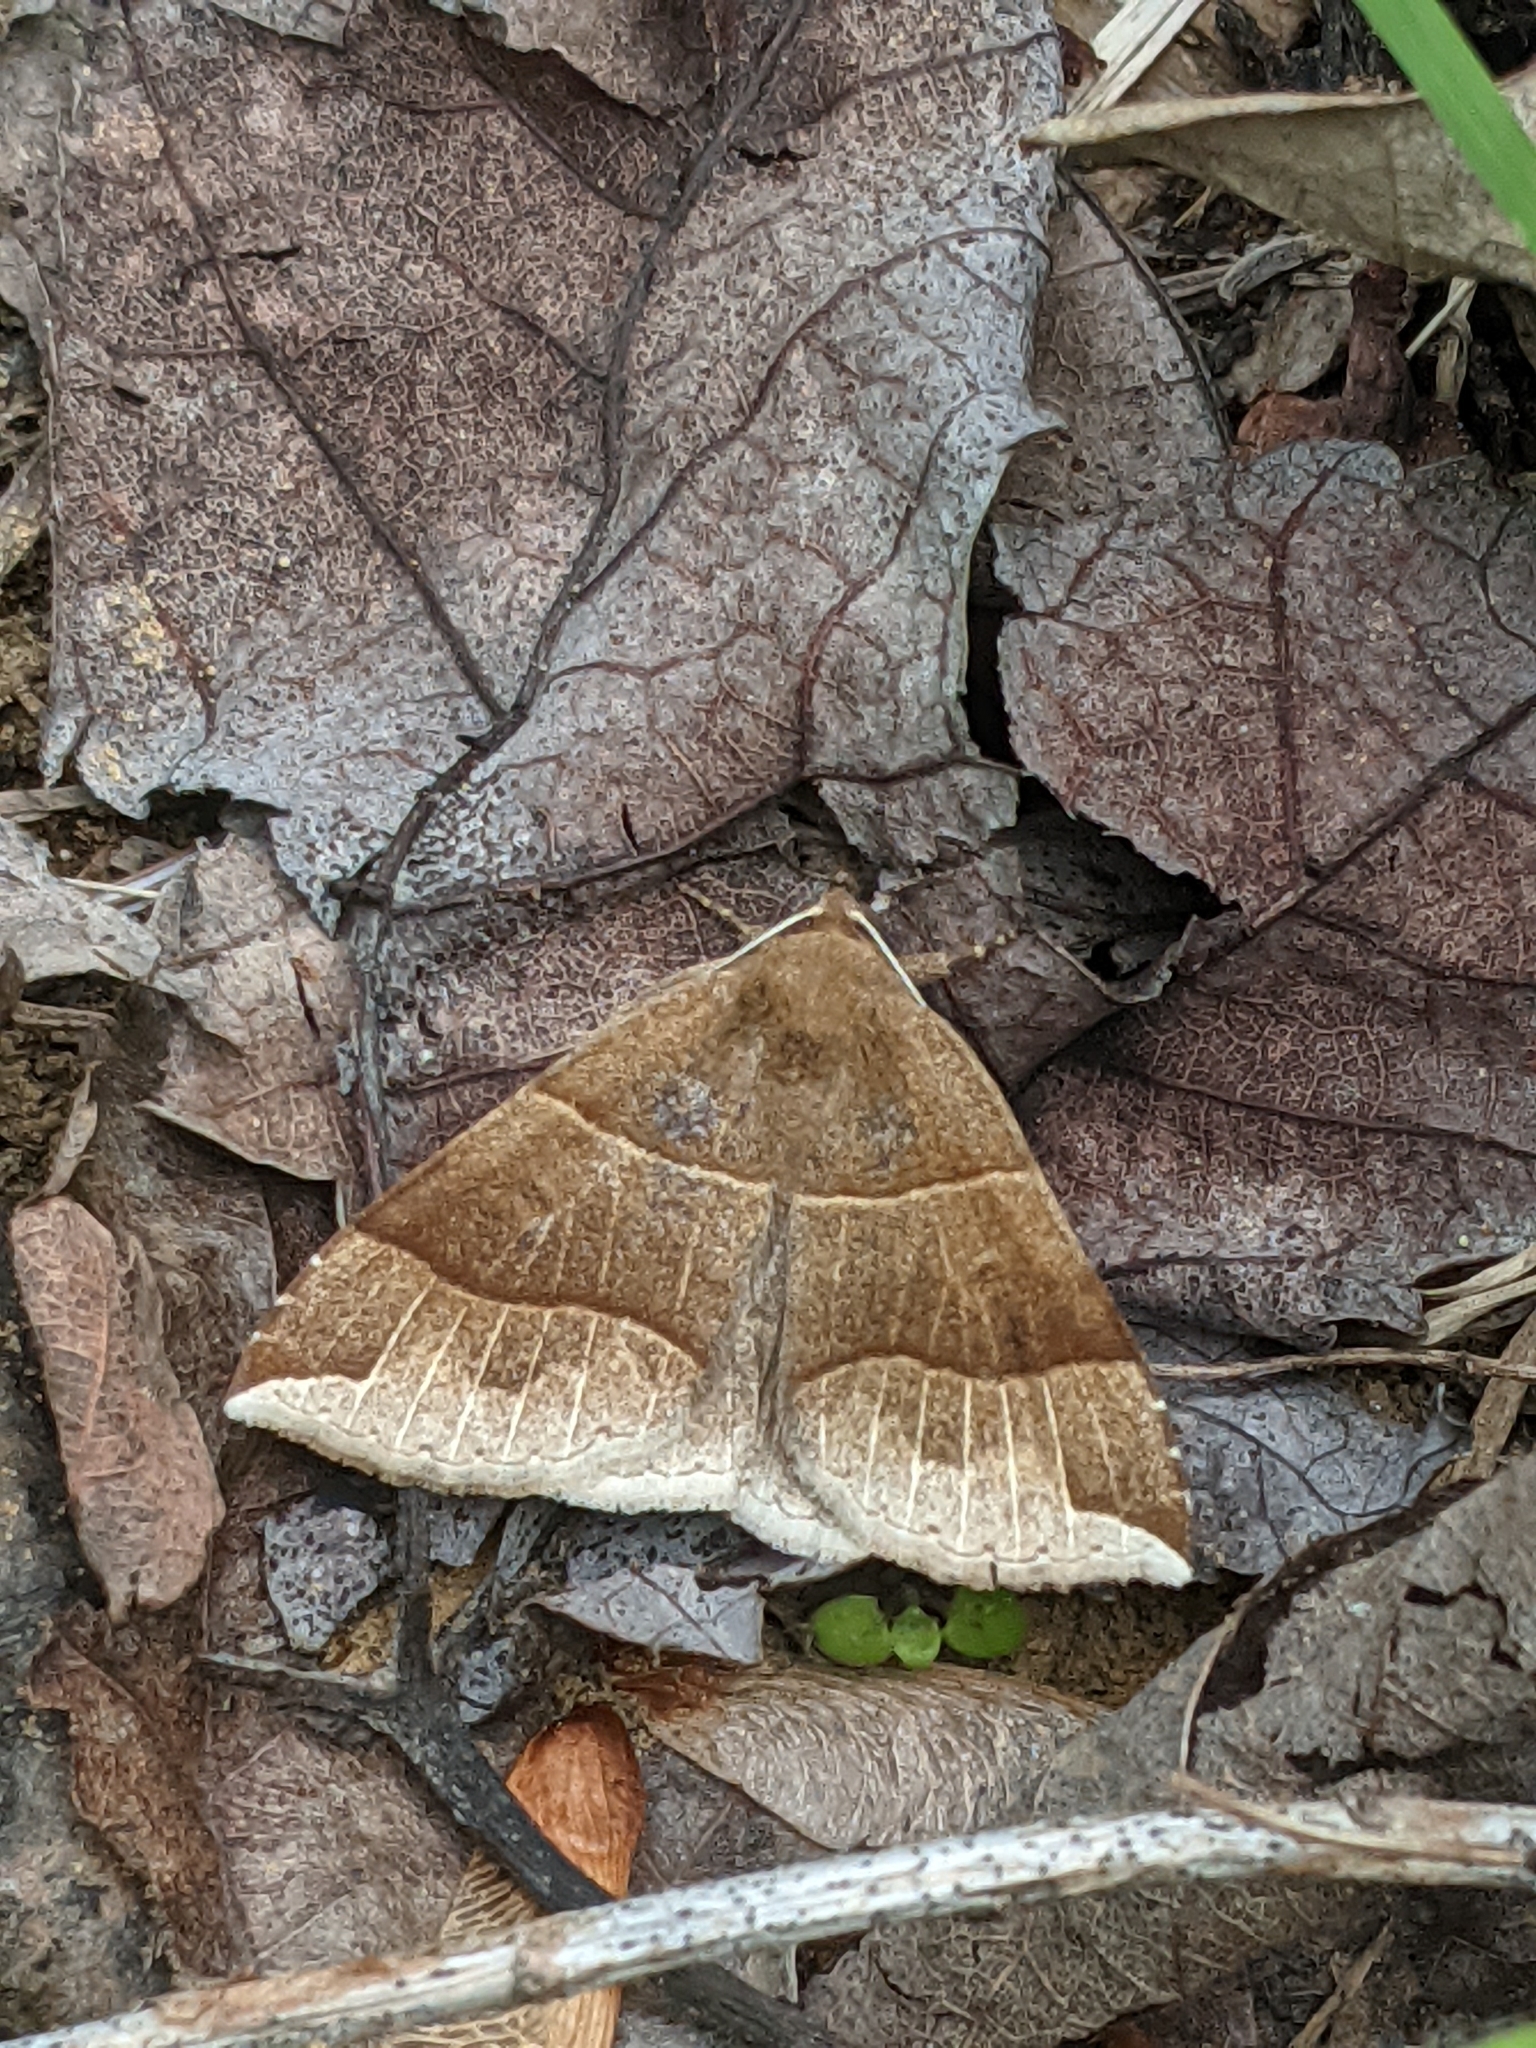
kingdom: Animalia
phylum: Arthropoda
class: Insecta
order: Lepidoptera
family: Erebidae
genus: Parallelia
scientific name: Parallelia bistriaris
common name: Maple looper moth
